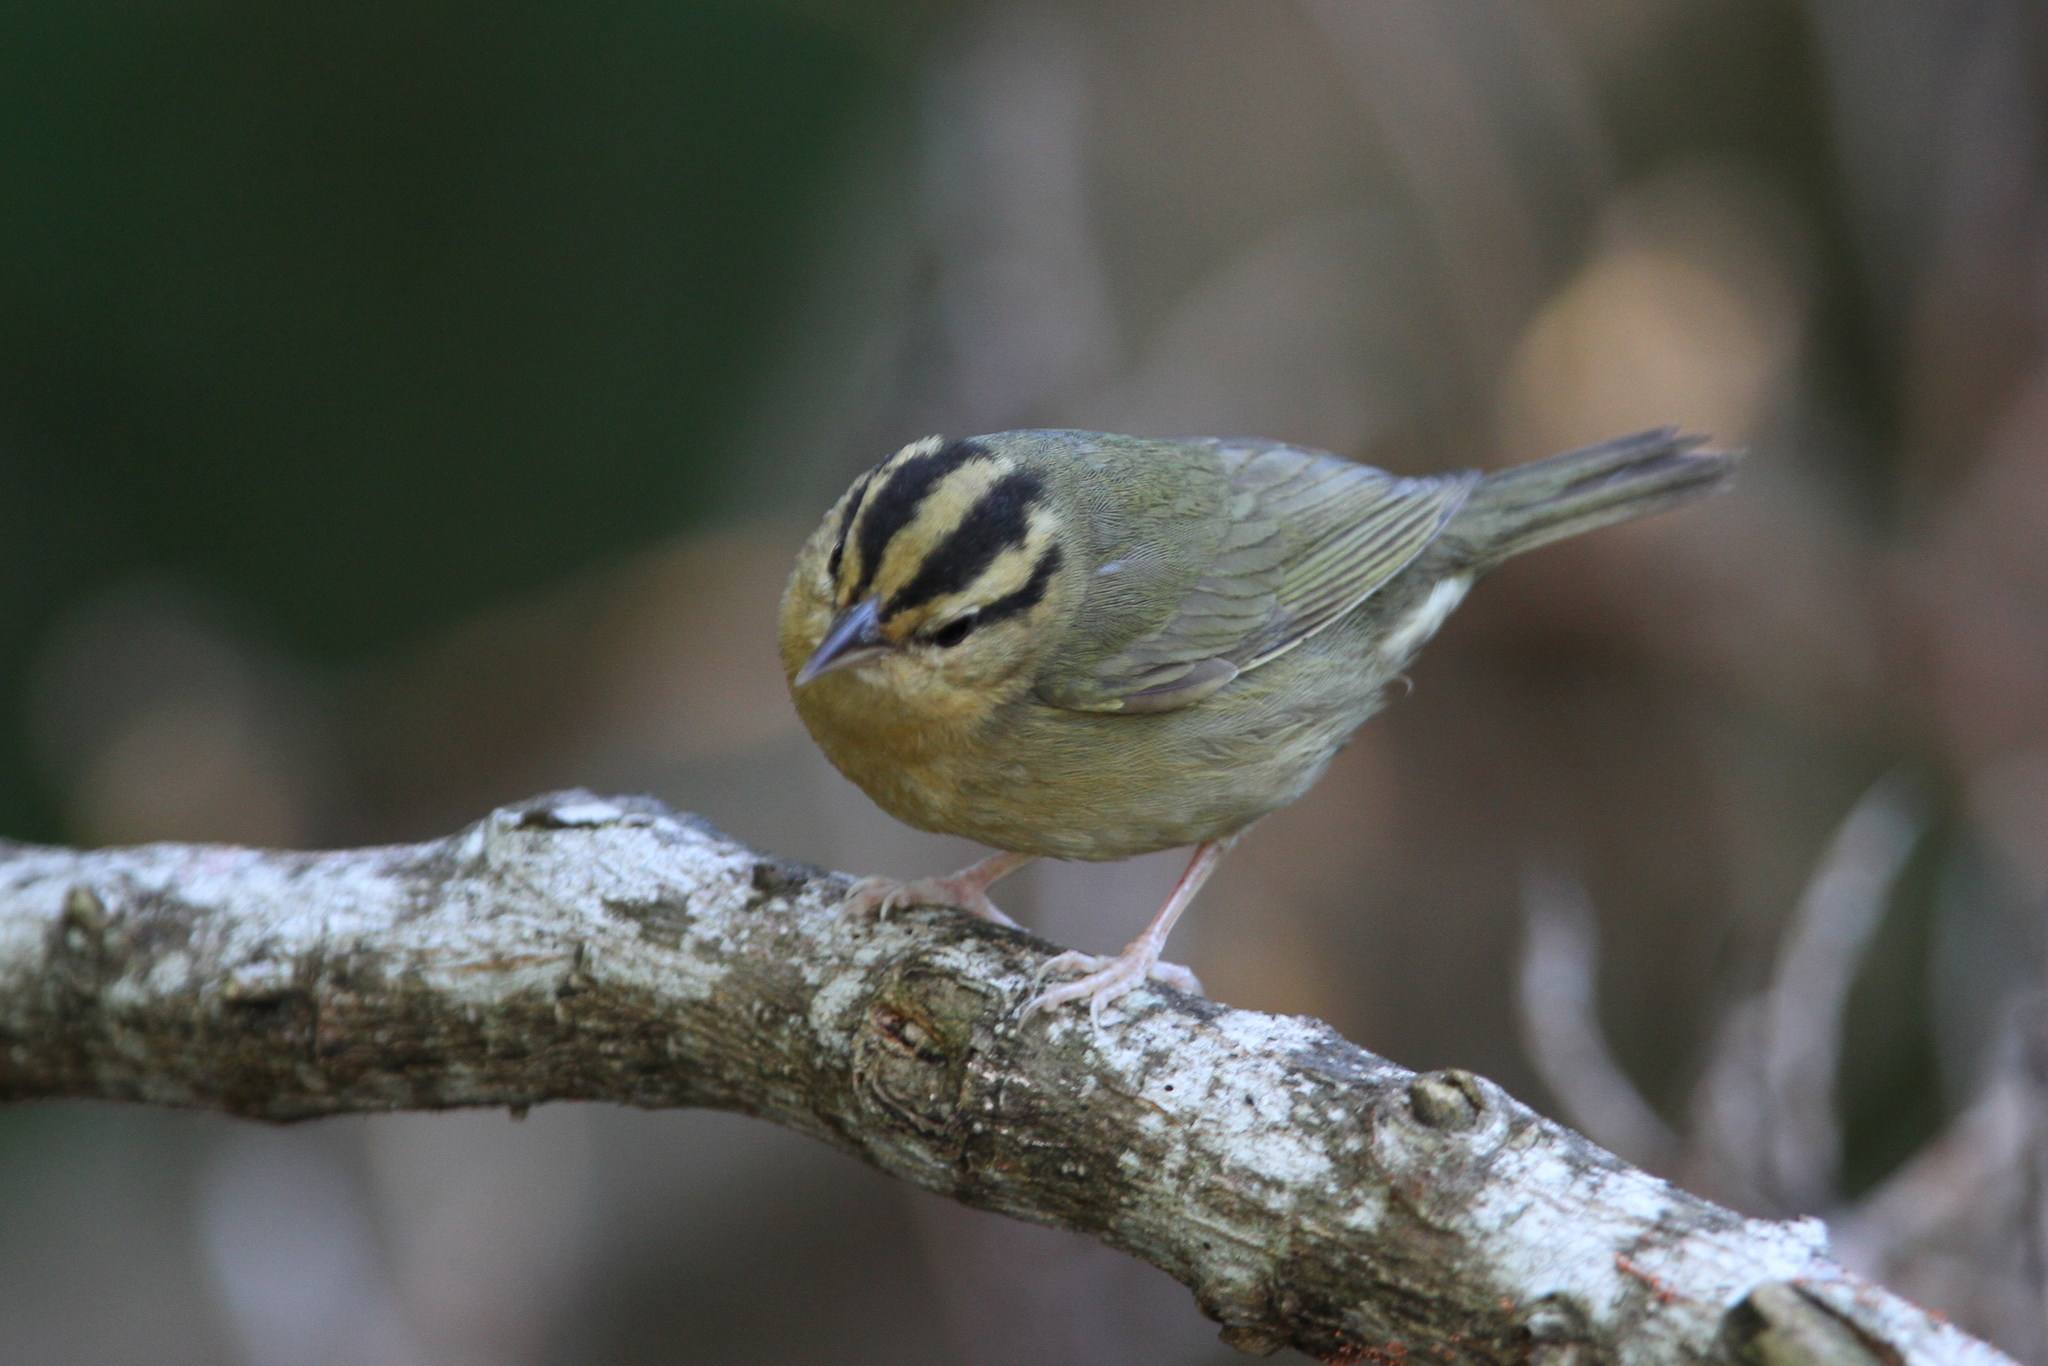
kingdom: Animalia
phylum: Chordata
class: Aves
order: Passeriformes
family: Parulidae
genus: Helmitheros
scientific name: Helmitheros vermivorum
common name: Worm-eating warbler
